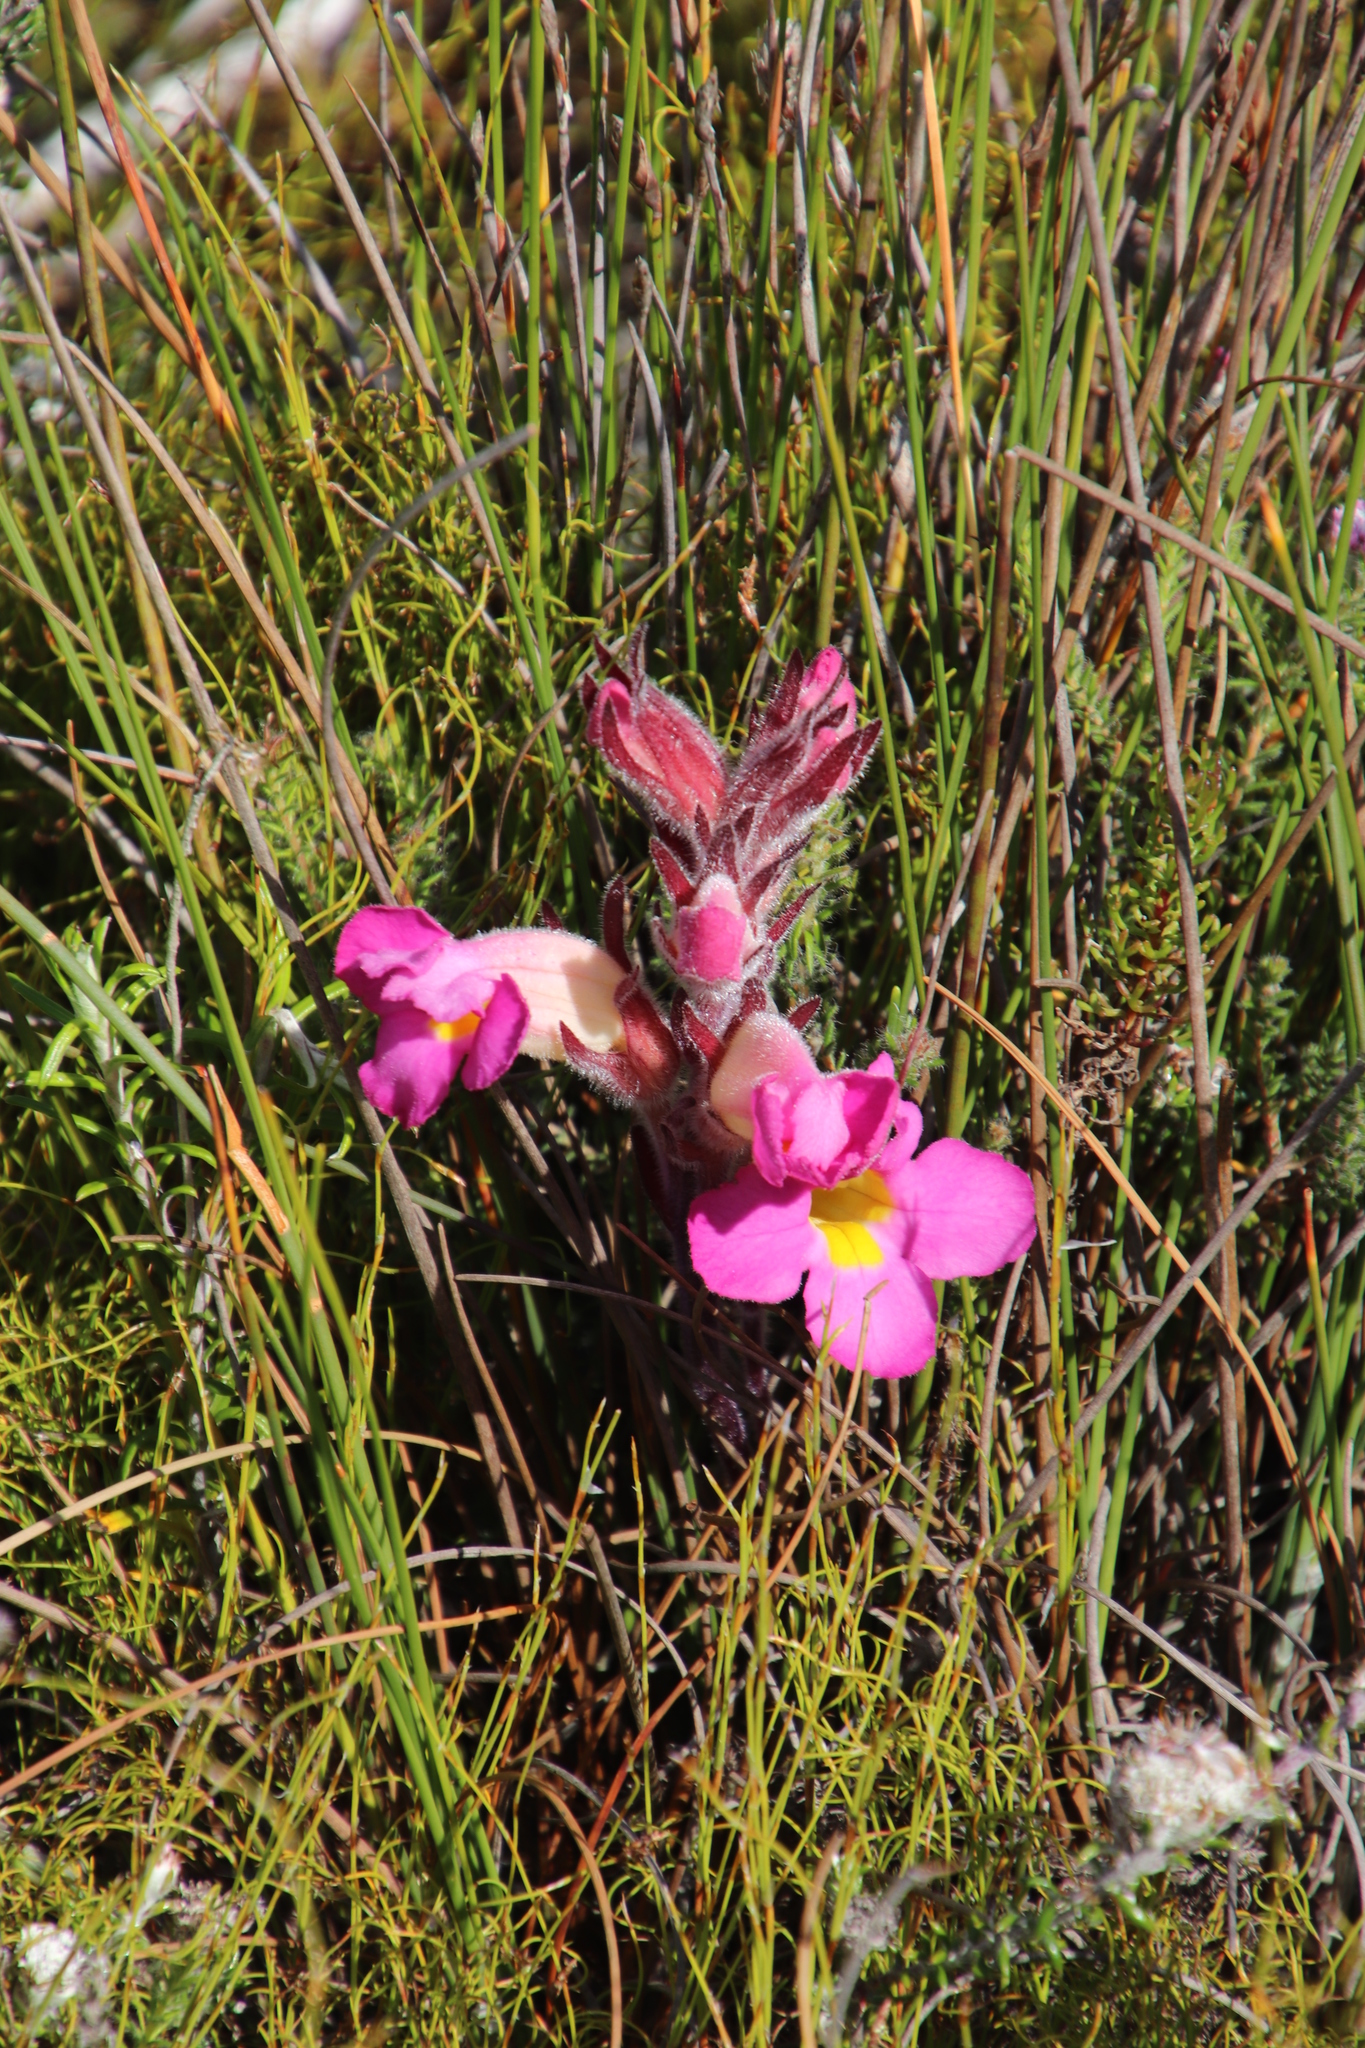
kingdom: Plantae
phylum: Tracheophyta
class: Magnoliopsida
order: Lamiales
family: Orobanchaceae
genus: Harveya
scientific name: Harveya purpurea
